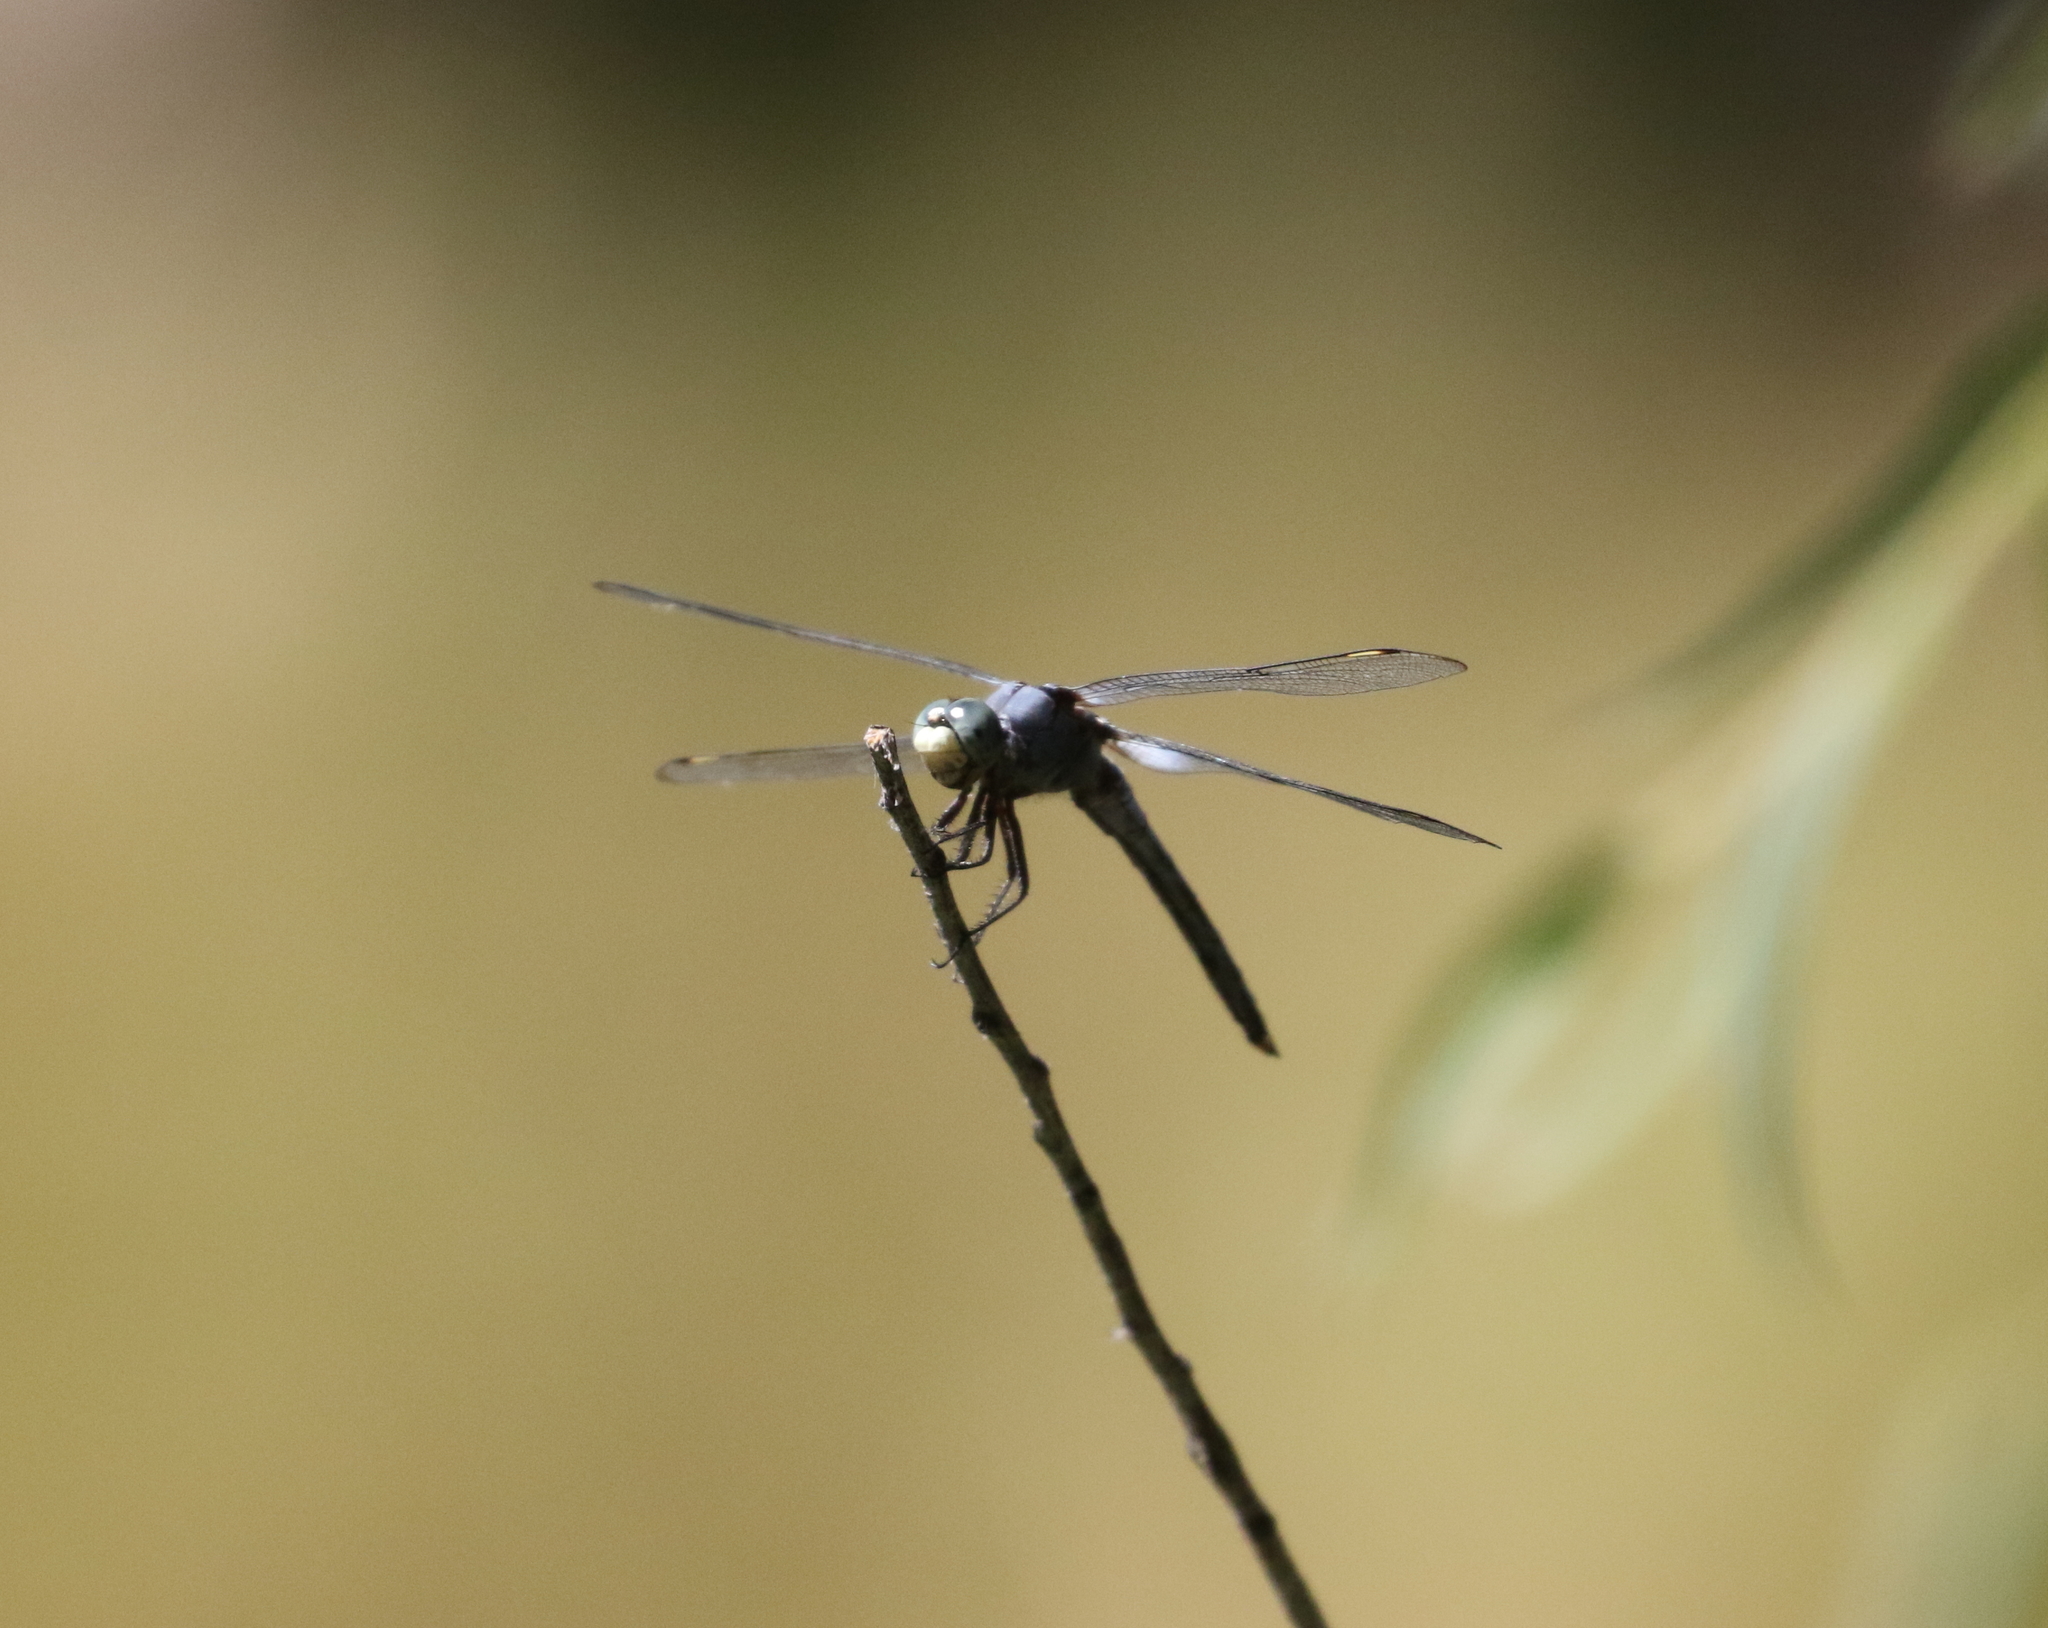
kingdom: Animalia
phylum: Arthropoda
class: Insecta
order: Odonata
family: Libellulidae
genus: Libellula
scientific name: Libellula comanche
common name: Comanche skimmer
